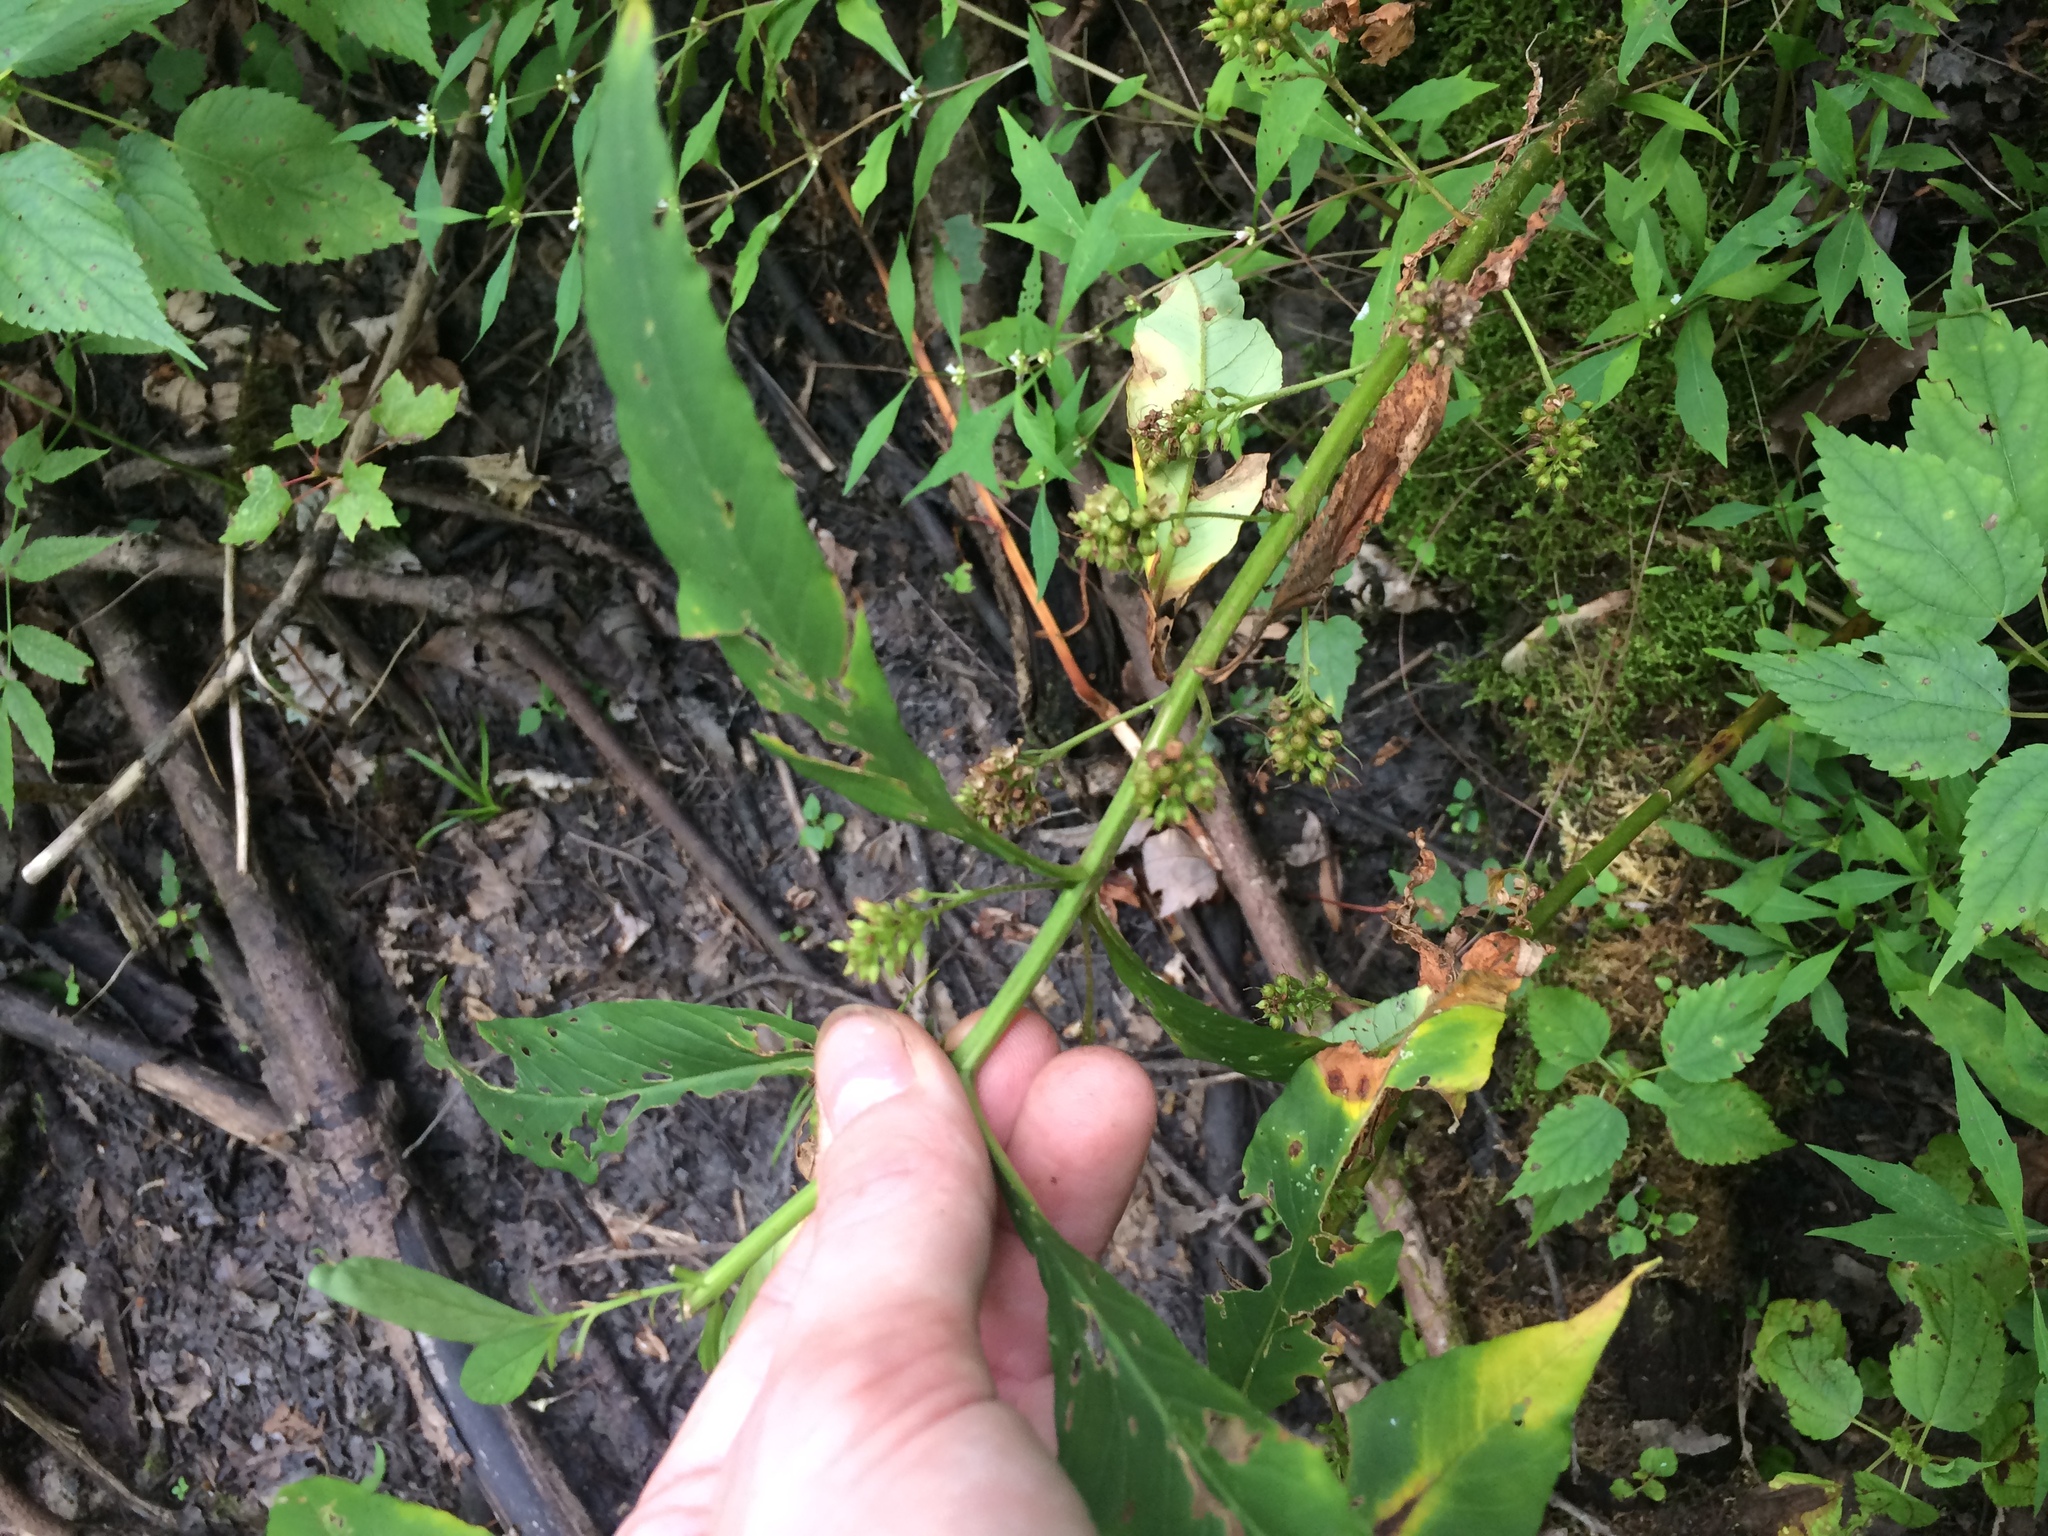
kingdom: Plantae
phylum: Tracheophyta
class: Magnoliopsida
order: Ericales
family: Primulaceae
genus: Lysimachia
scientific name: Lysimachia thyrsiflora
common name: Tufted loosestrife
